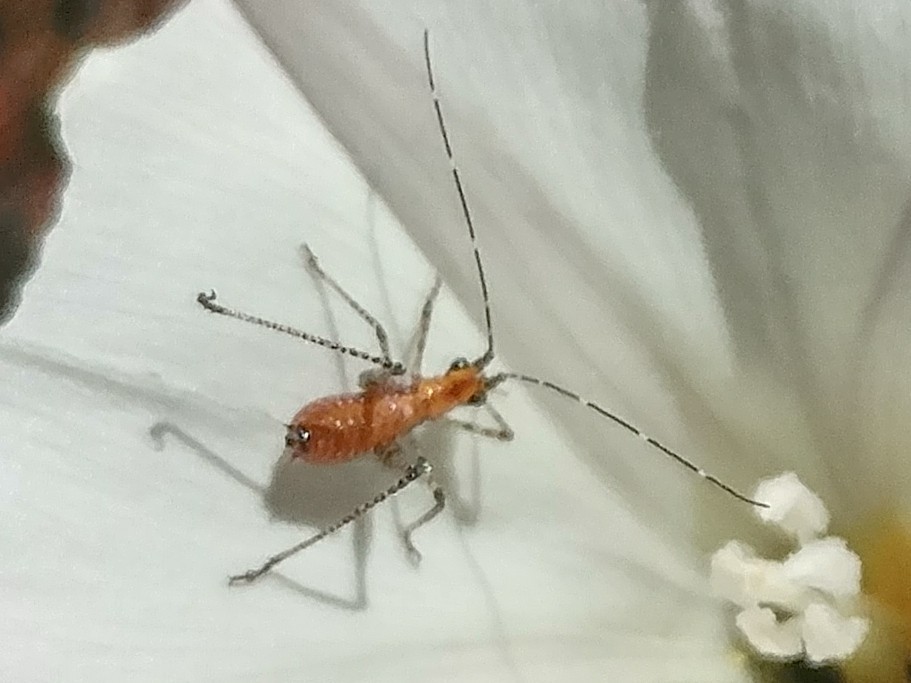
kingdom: Animalia
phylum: Arthropoda
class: Insecta
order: Orthoptera
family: Tettigoniidae
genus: Scudderia
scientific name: Scudderia
